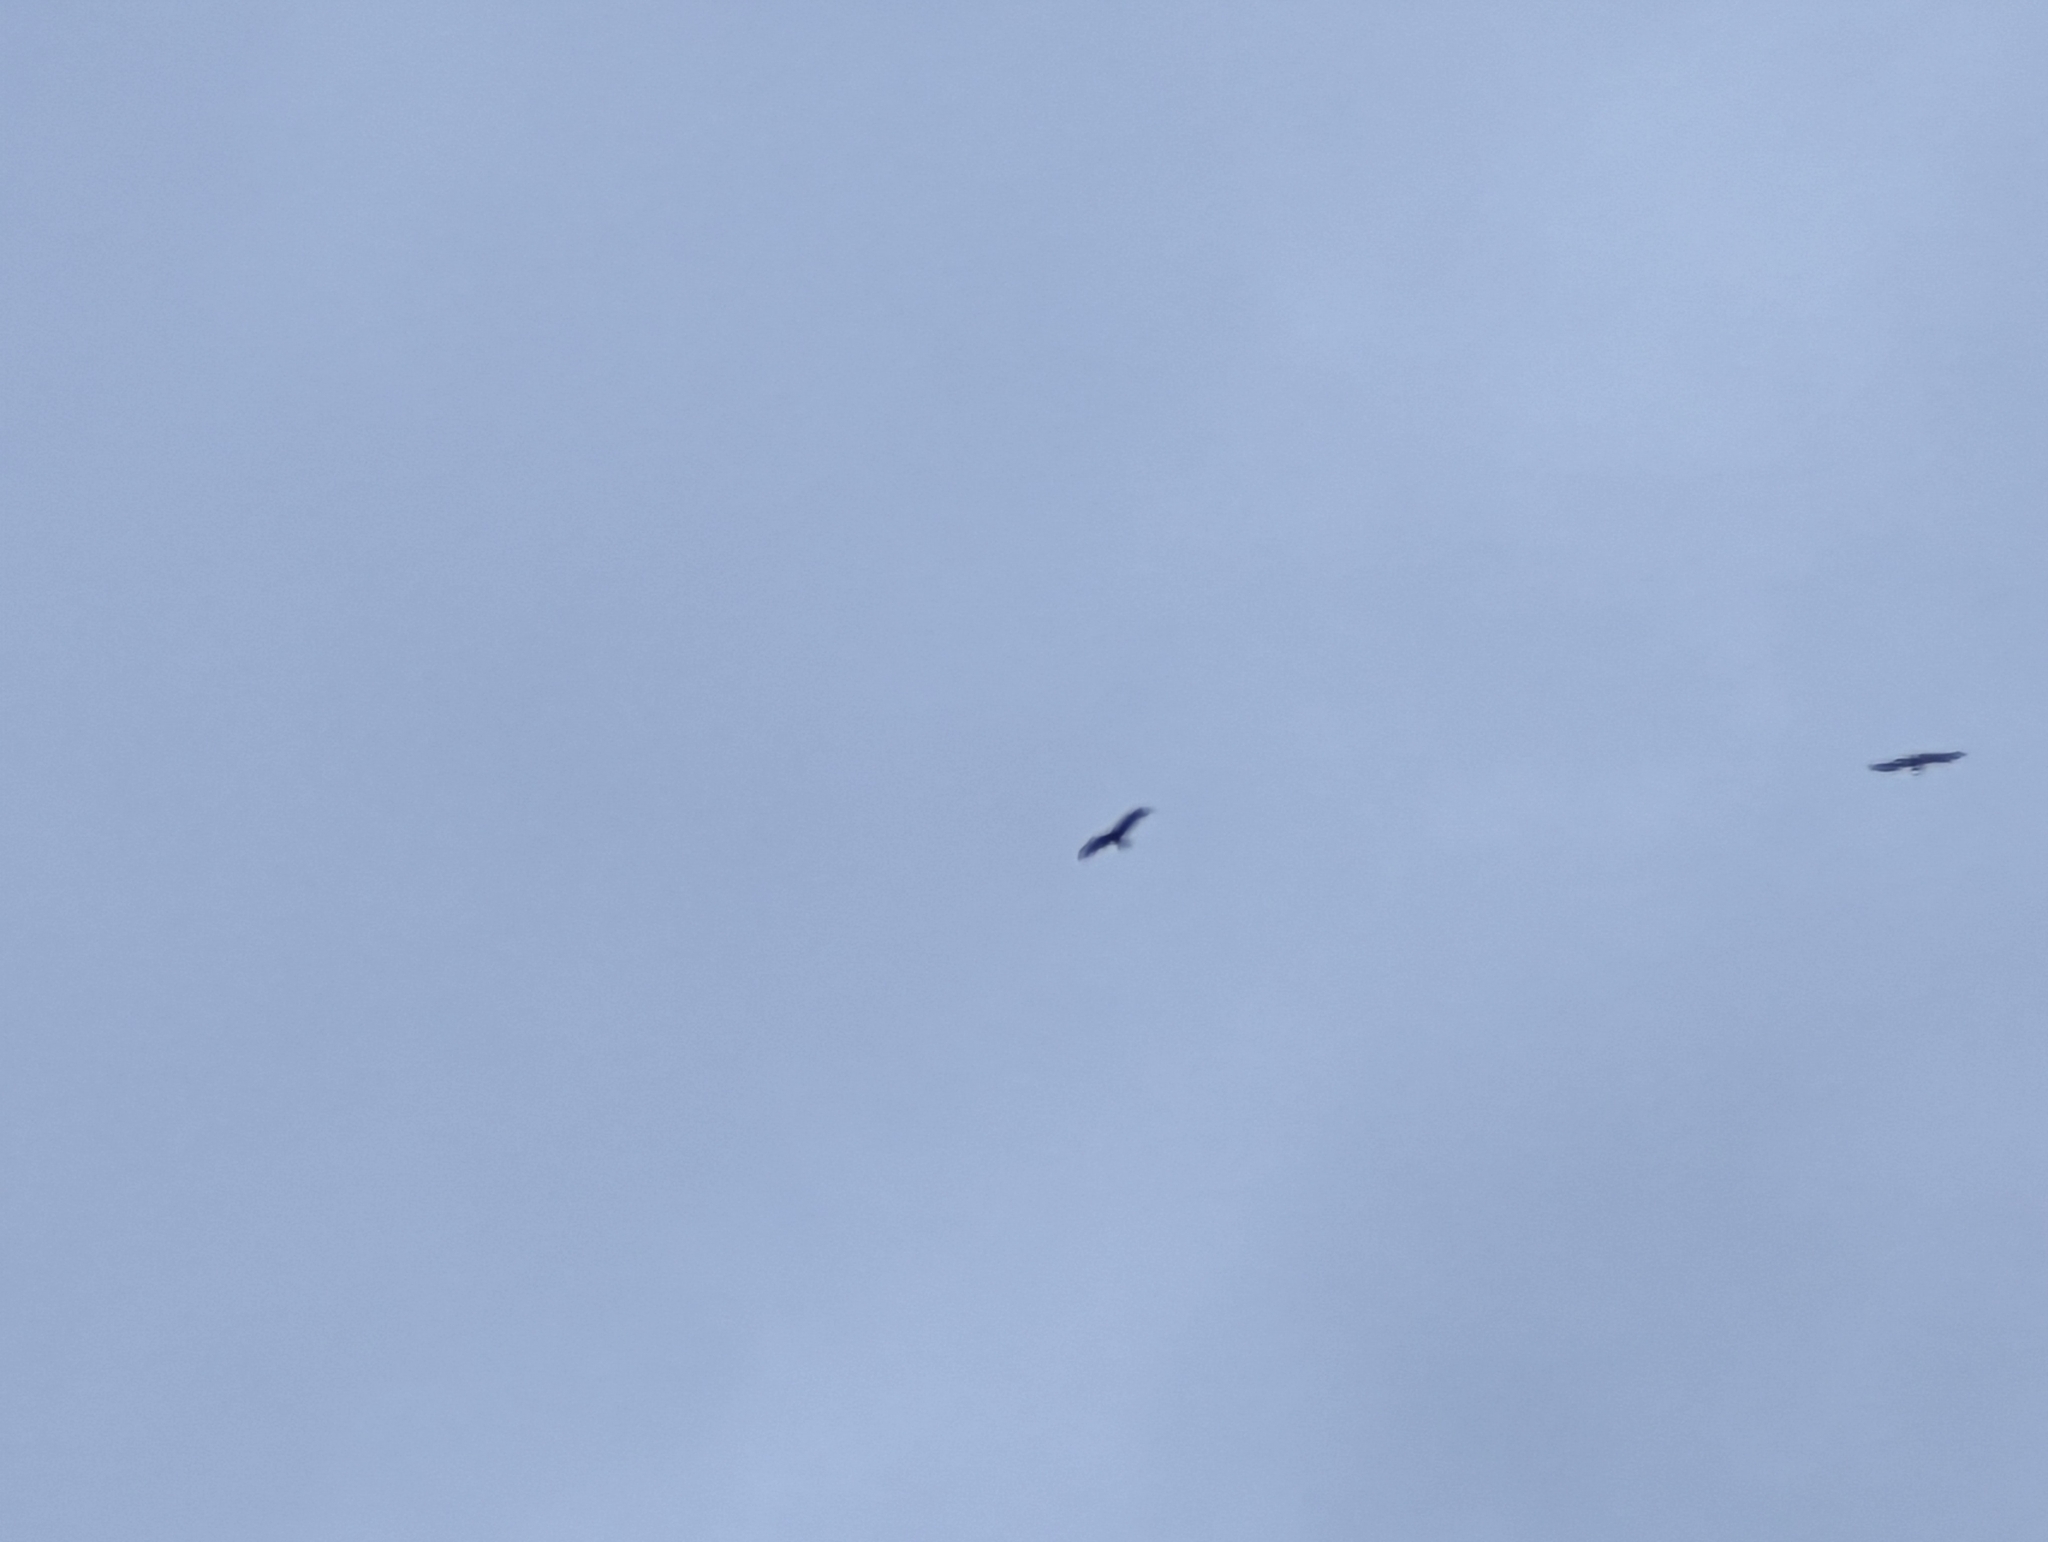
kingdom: Animalia
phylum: Chordata
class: Aves
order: Accipitriformes
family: Accipitridae
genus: Milvus
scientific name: Milvus milvus
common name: Red kite
